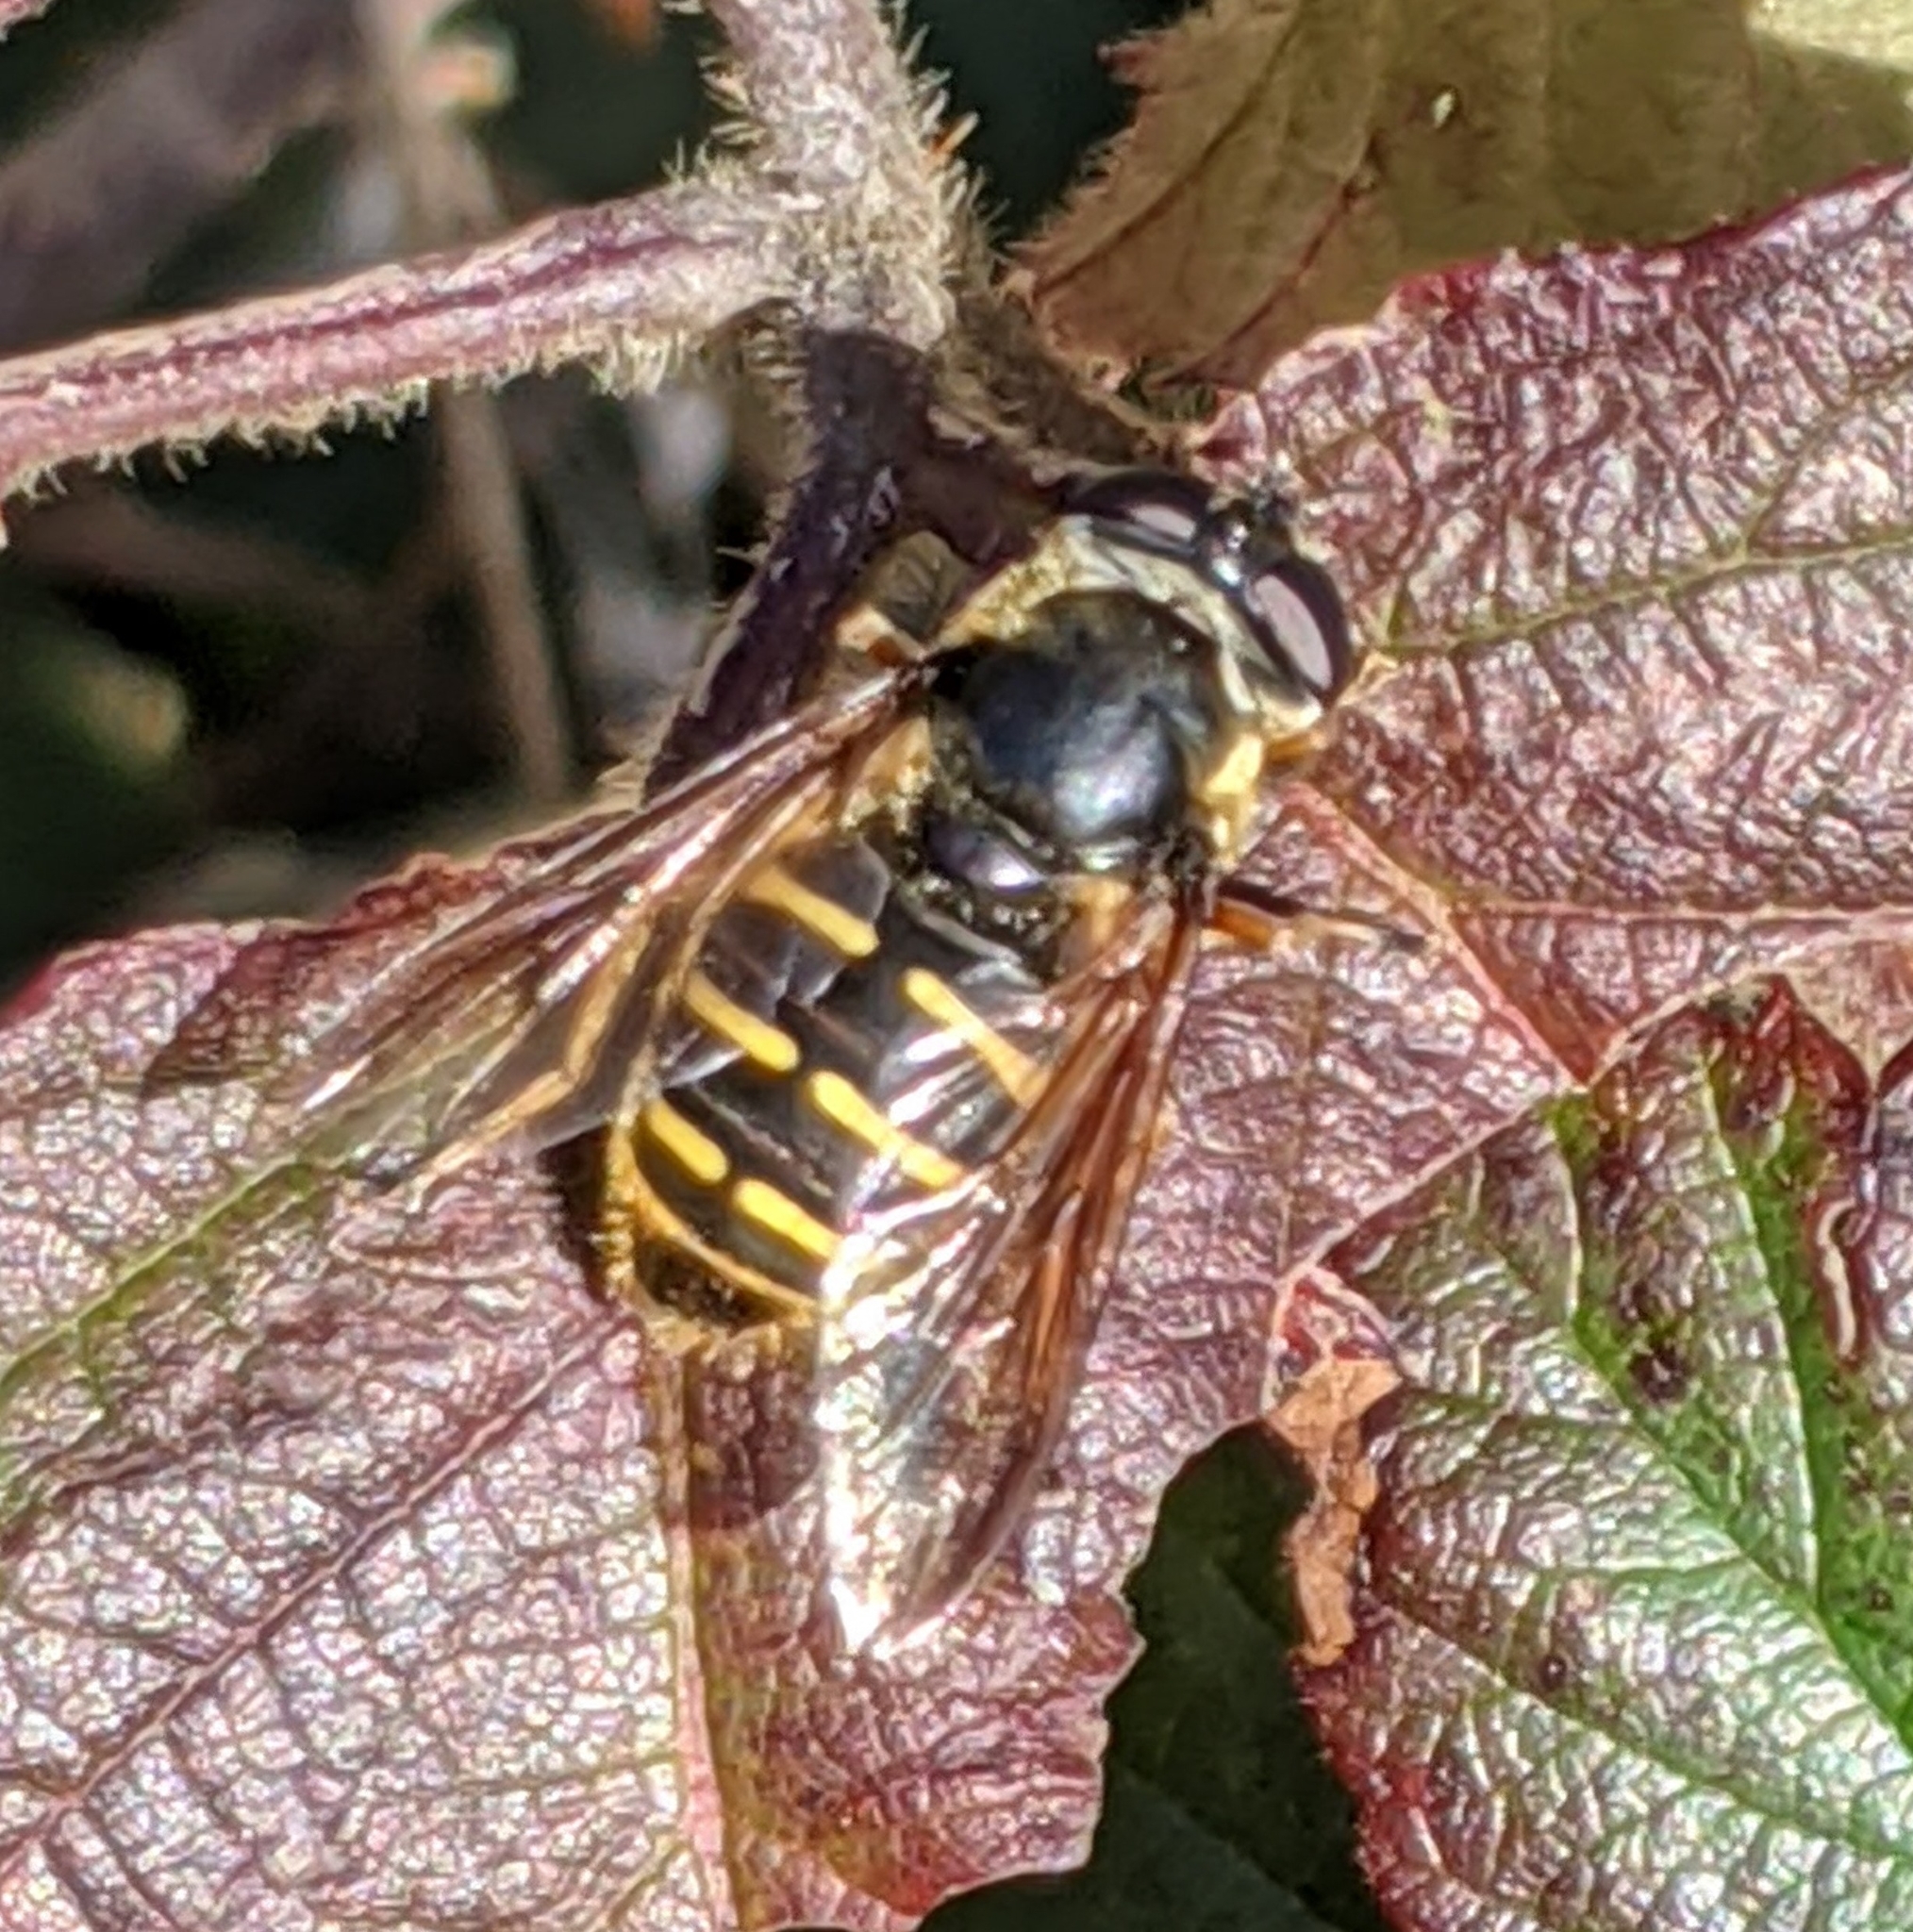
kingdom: Animalia
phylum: Arthropoda
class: Insecta
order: Diptera
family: Syrphidae
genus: Sericomyia
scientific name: Sericomyia chalcopyga
